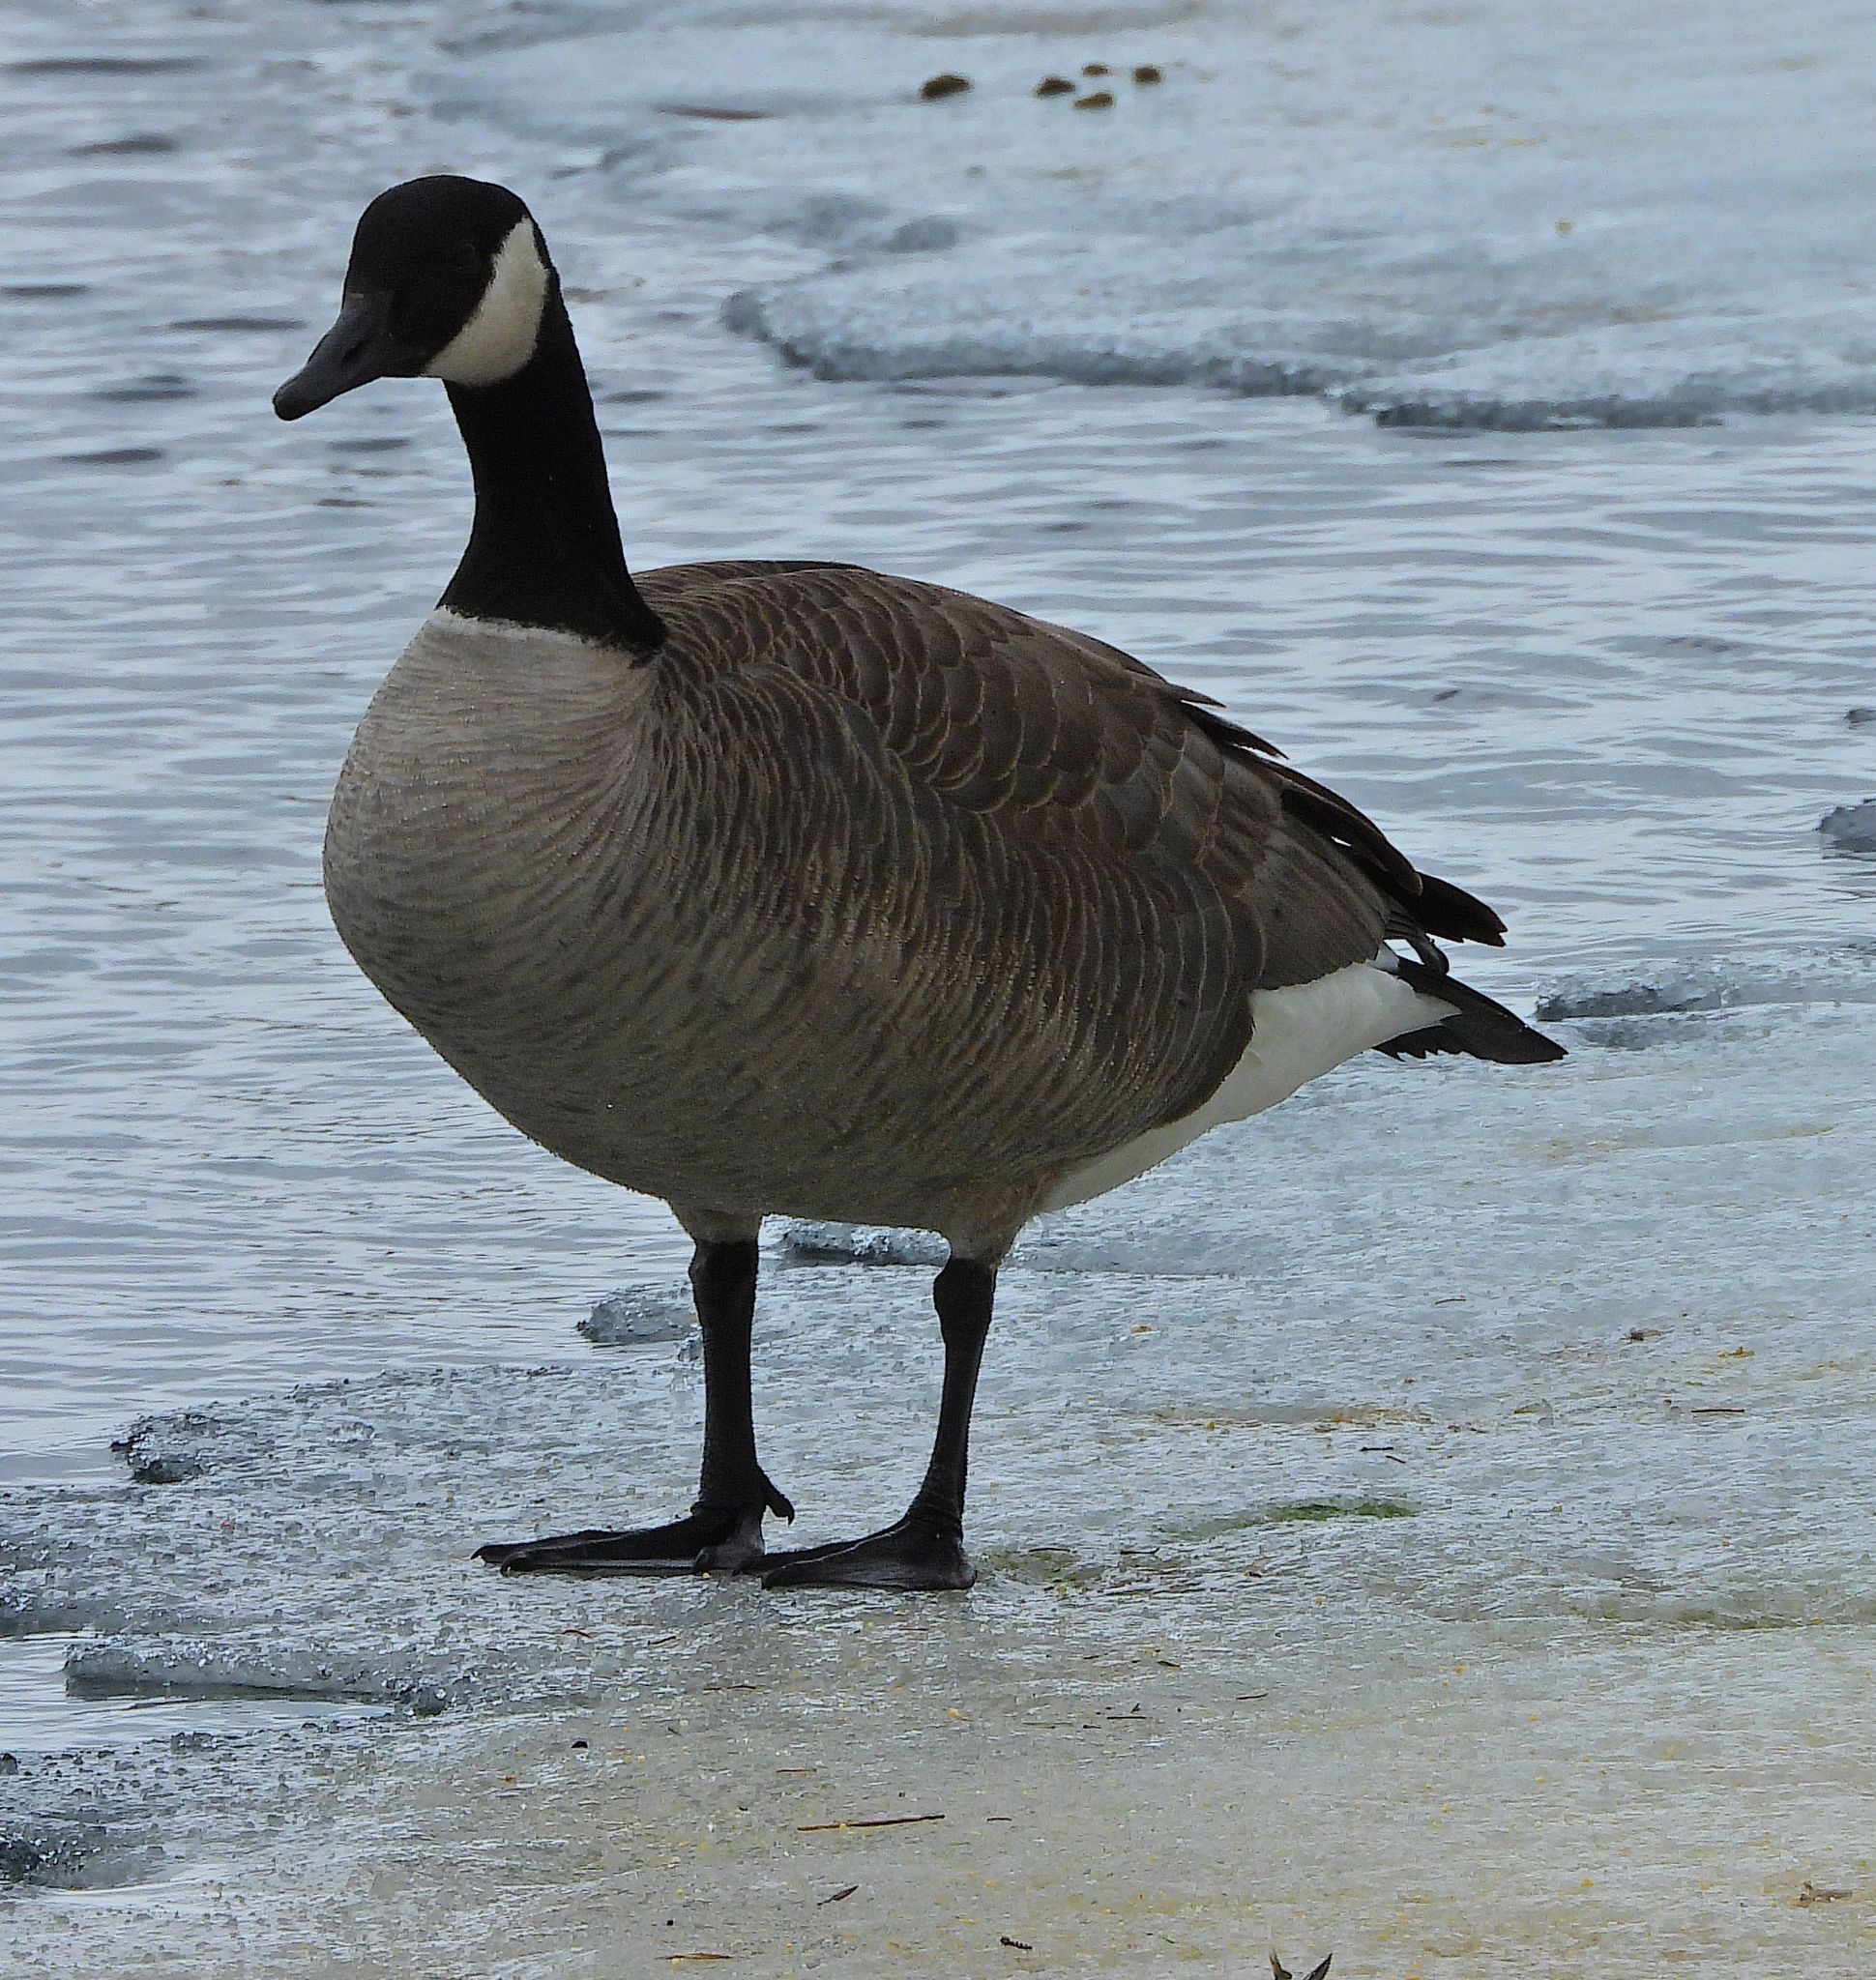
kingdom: Animalia
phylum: Chordata
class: Aves
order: Anseriformes
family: Anatidae
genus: Branta
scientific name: Branta canadensis
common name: Canada goose
